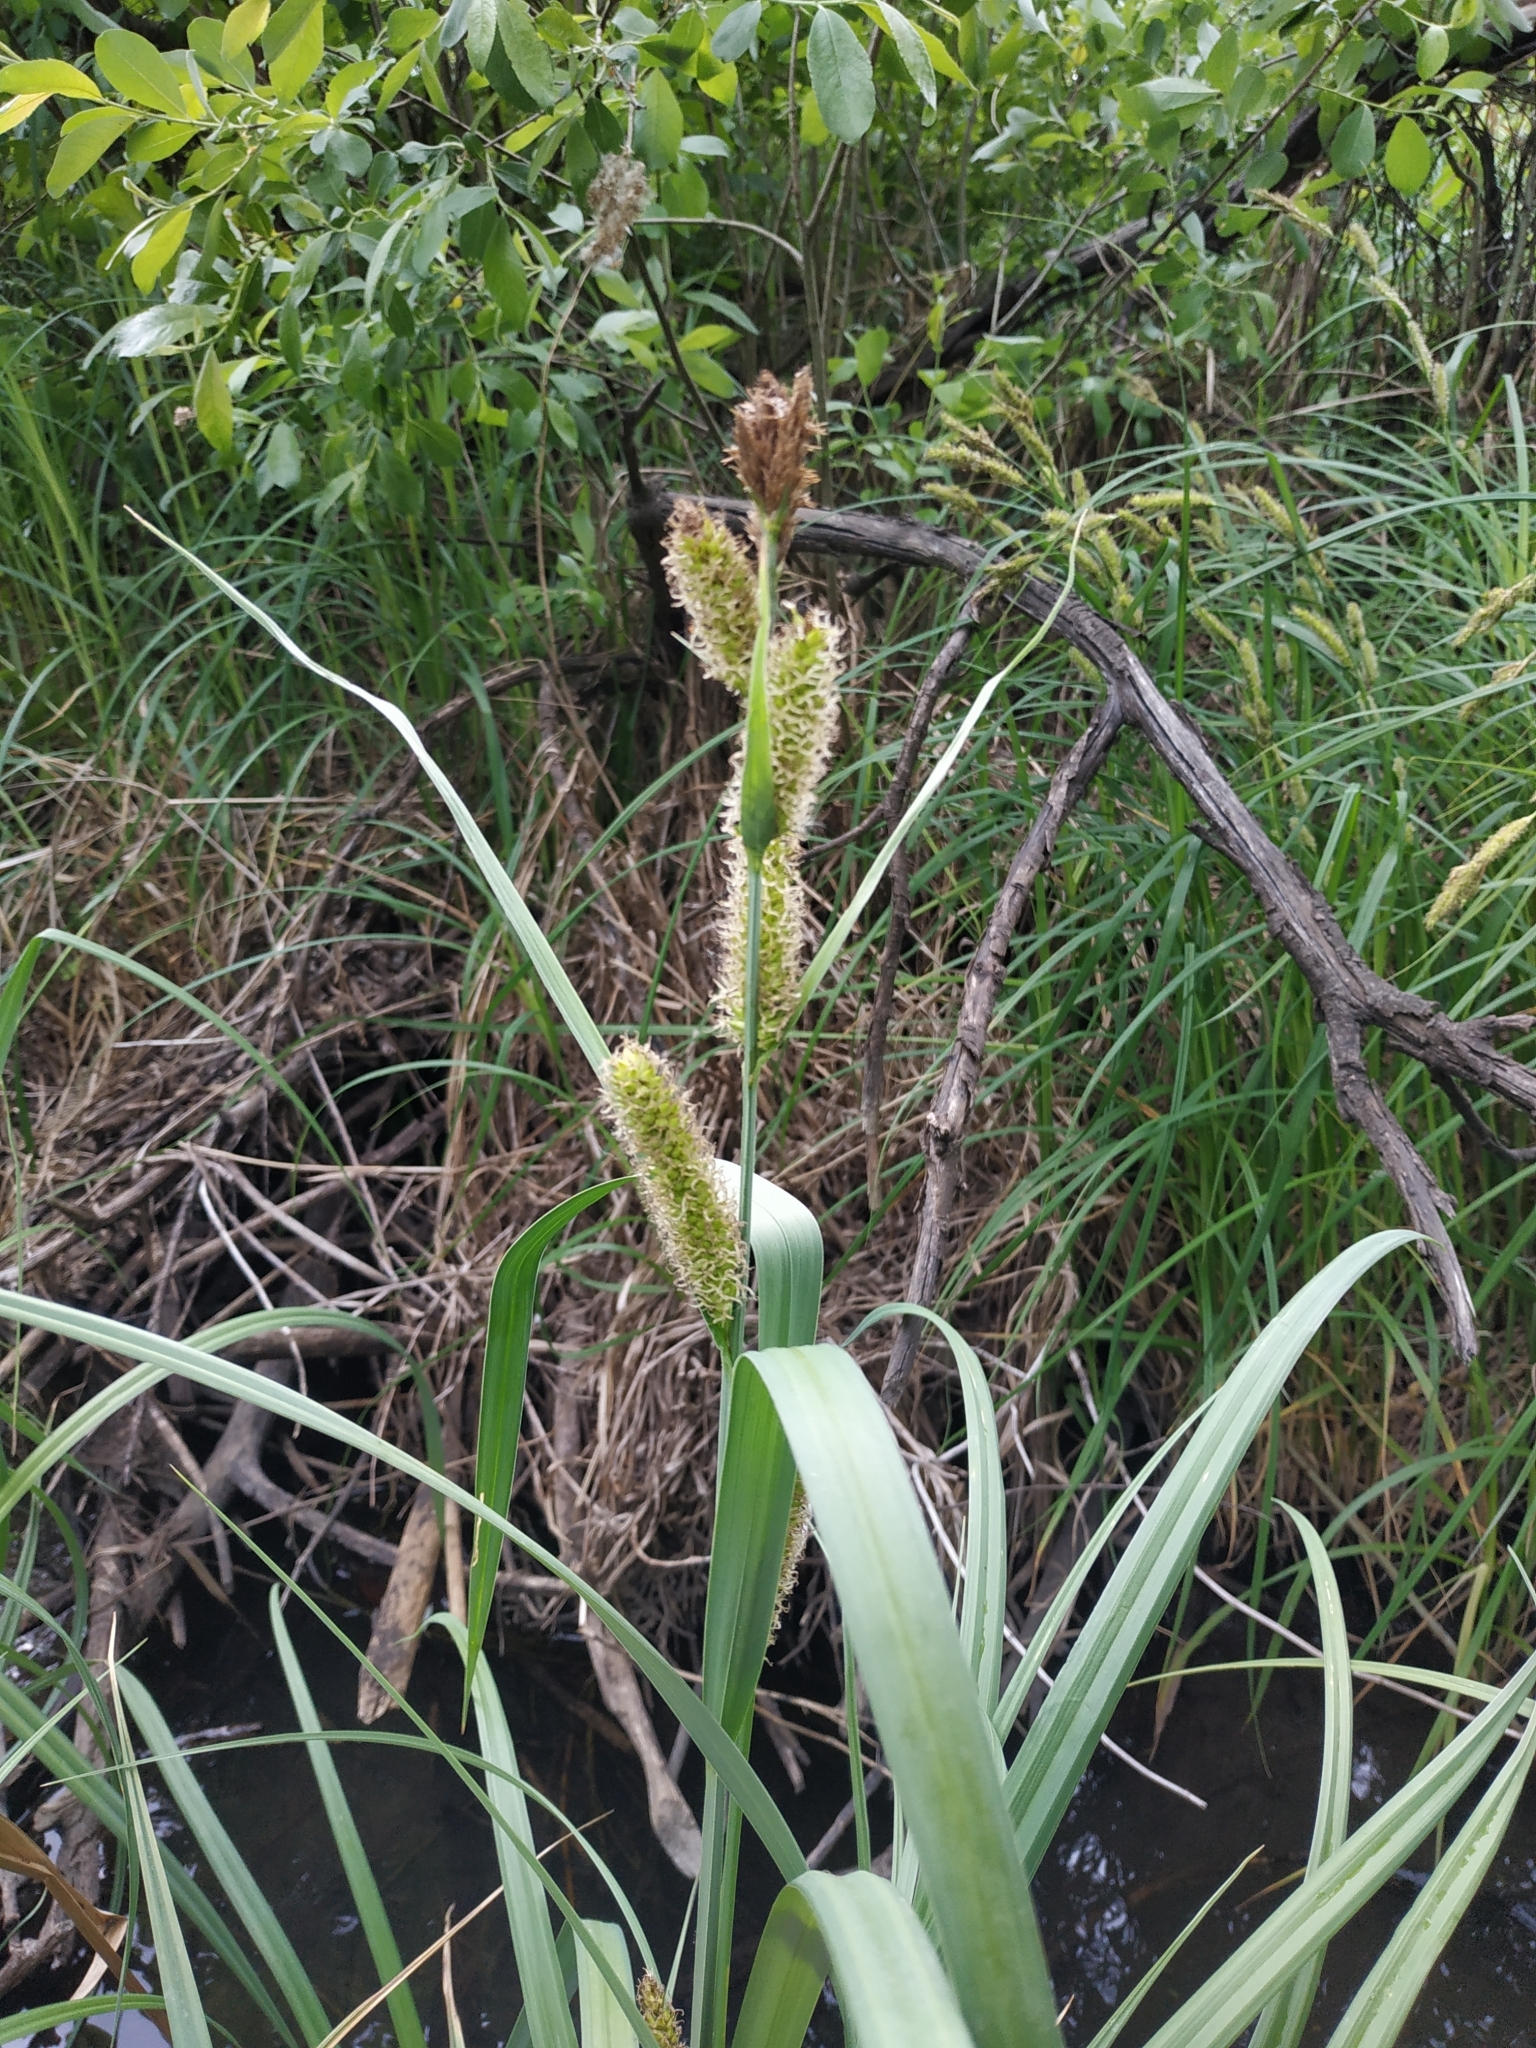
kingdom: Plantae
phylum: Tracheophyta
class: Liliopsida
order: Poales
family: Cyperaceae
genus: Carex
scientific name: Carex riparia
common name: Greater pond-sedge
